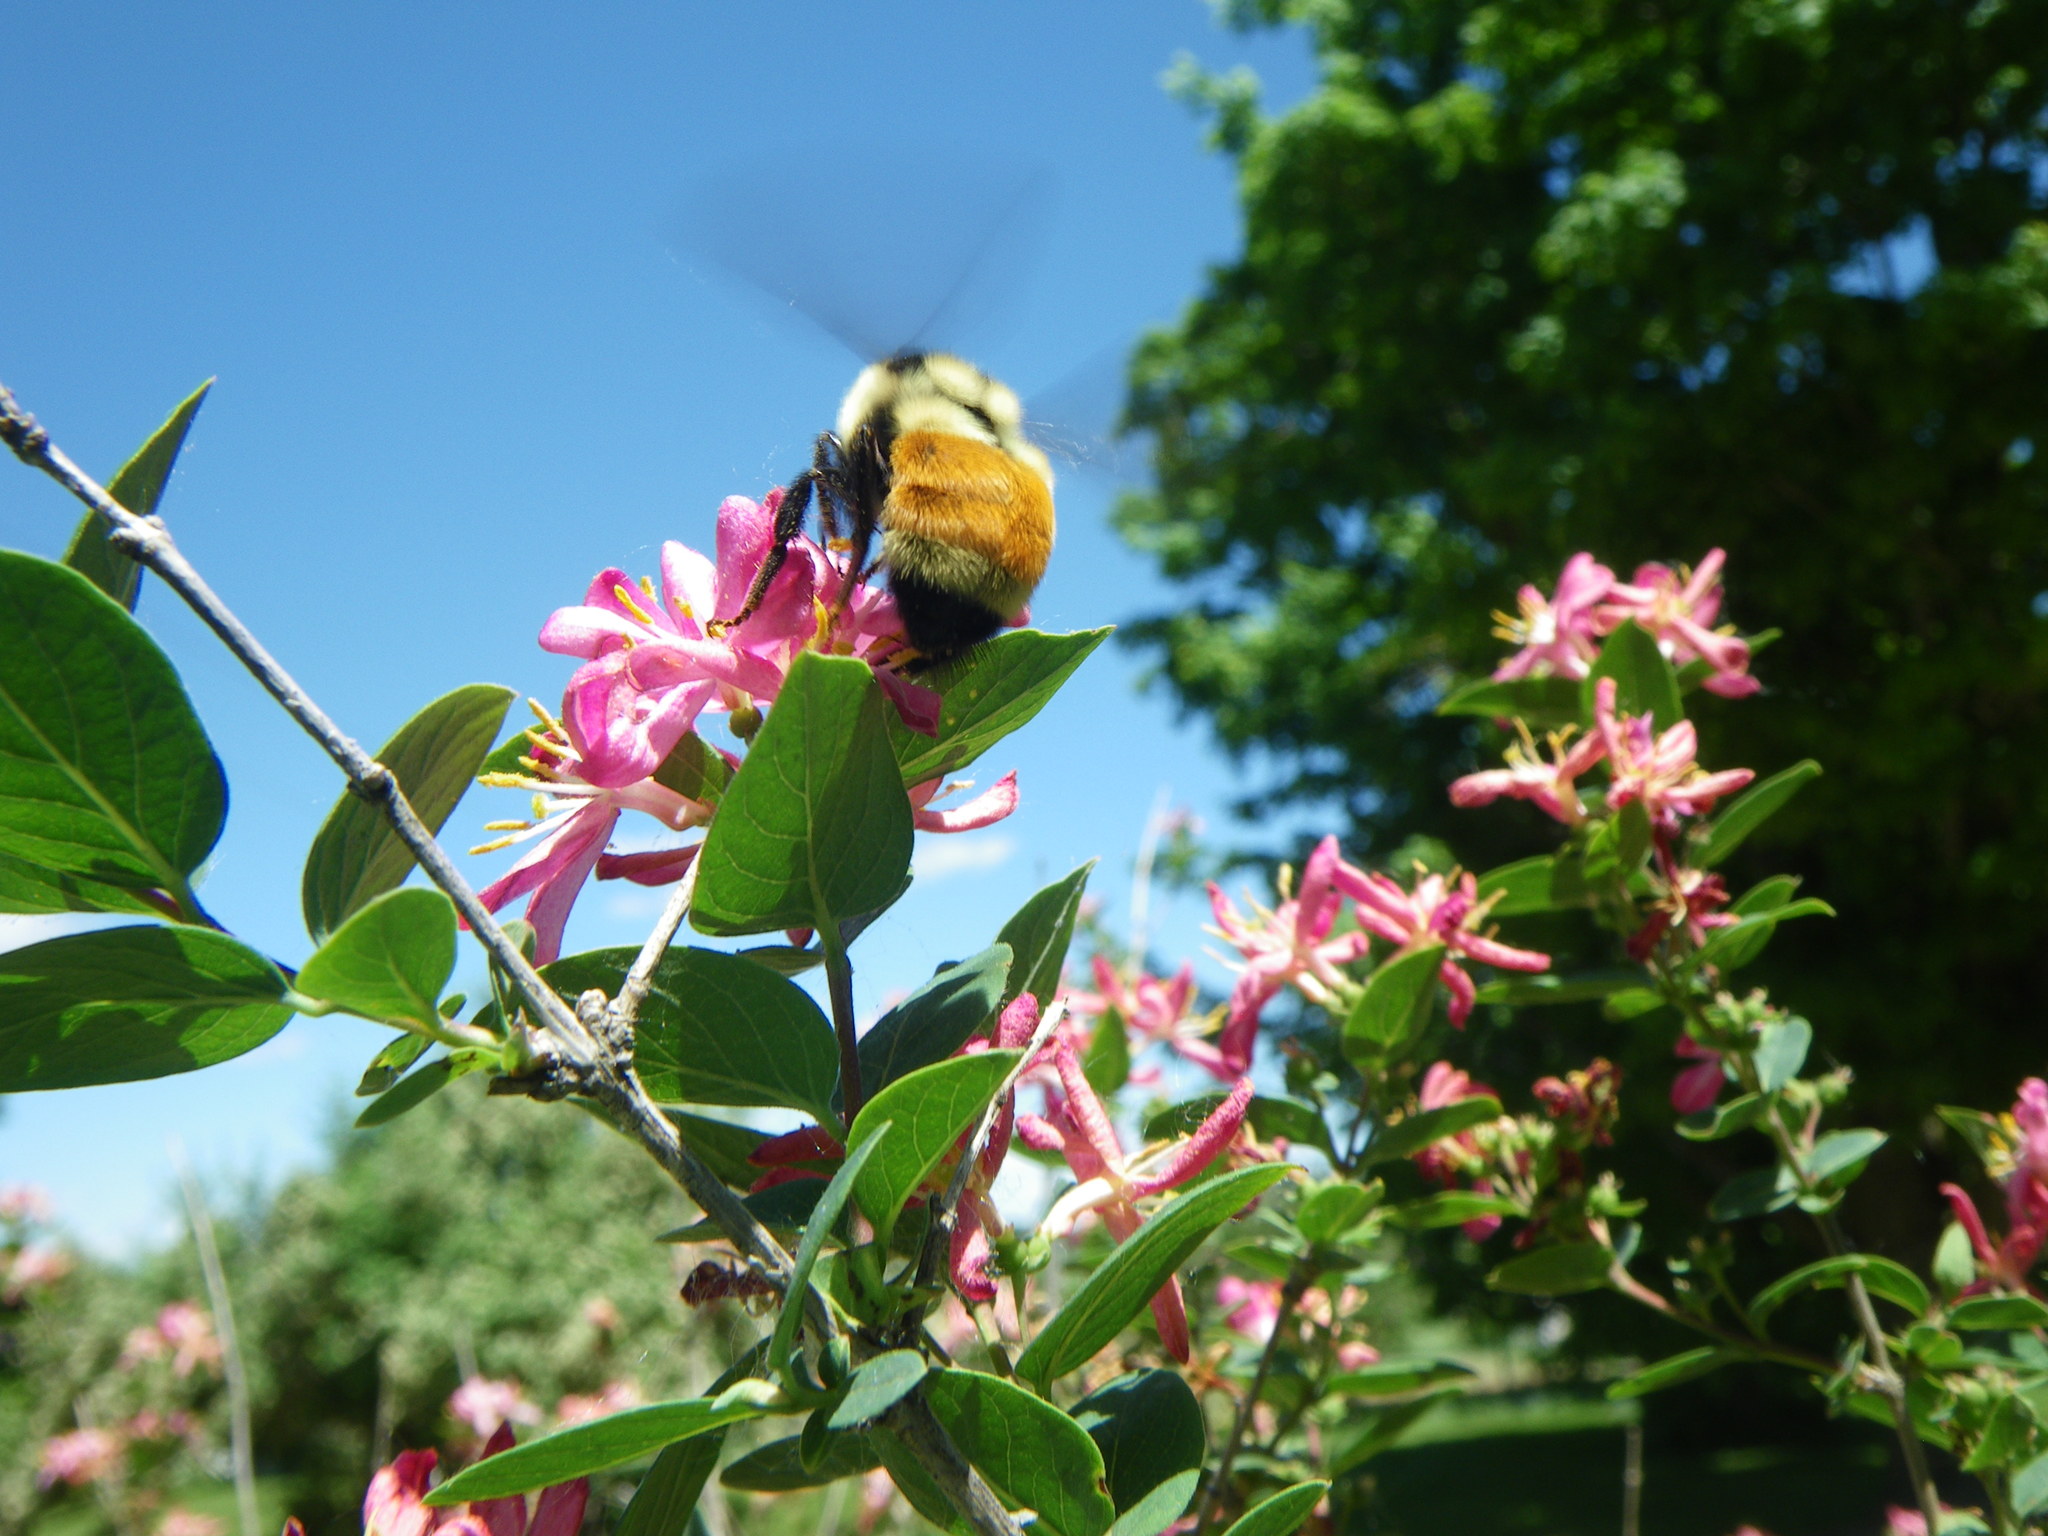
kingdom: Animalia
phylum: Arthropoda
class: Insecta
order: Hymenoptera
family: Apidae
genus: Bombus
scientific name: Bombus ternarius
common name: Tri-colored bumble bee
